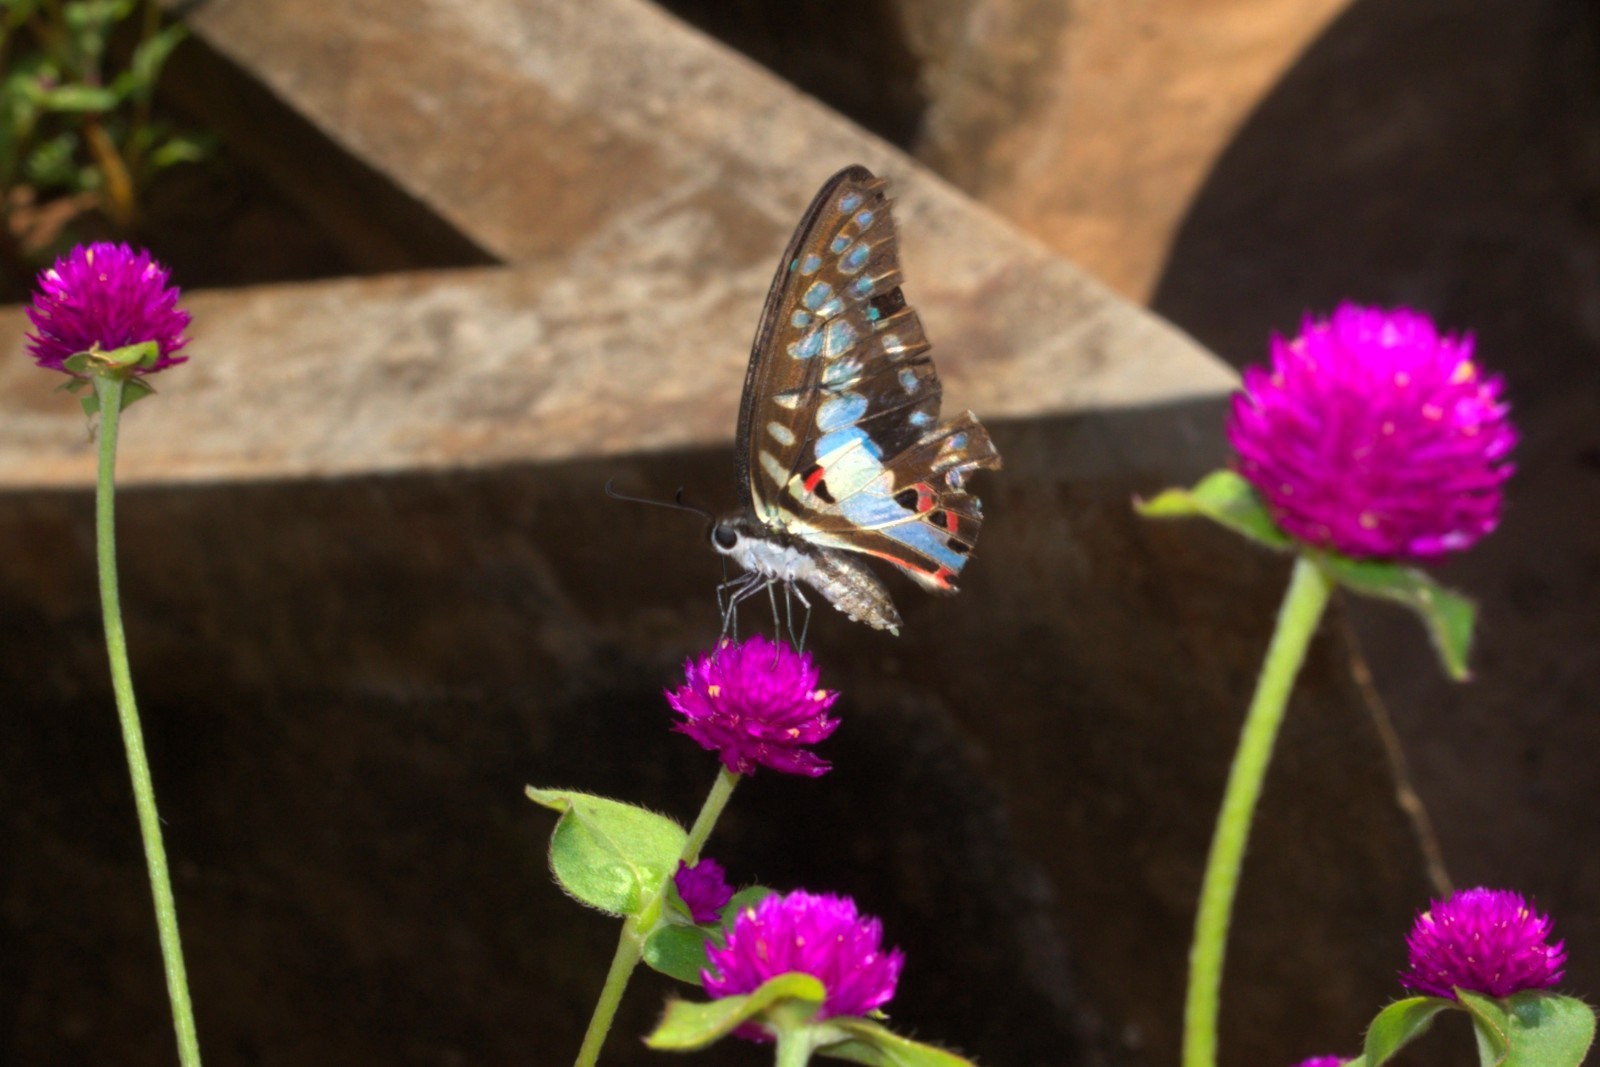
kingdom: Animalia
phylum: Arthropoda
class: Insecta
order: Lepidoptera
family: Papilionidae
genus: Graphium
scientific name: Graphium doson
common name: Common jay
